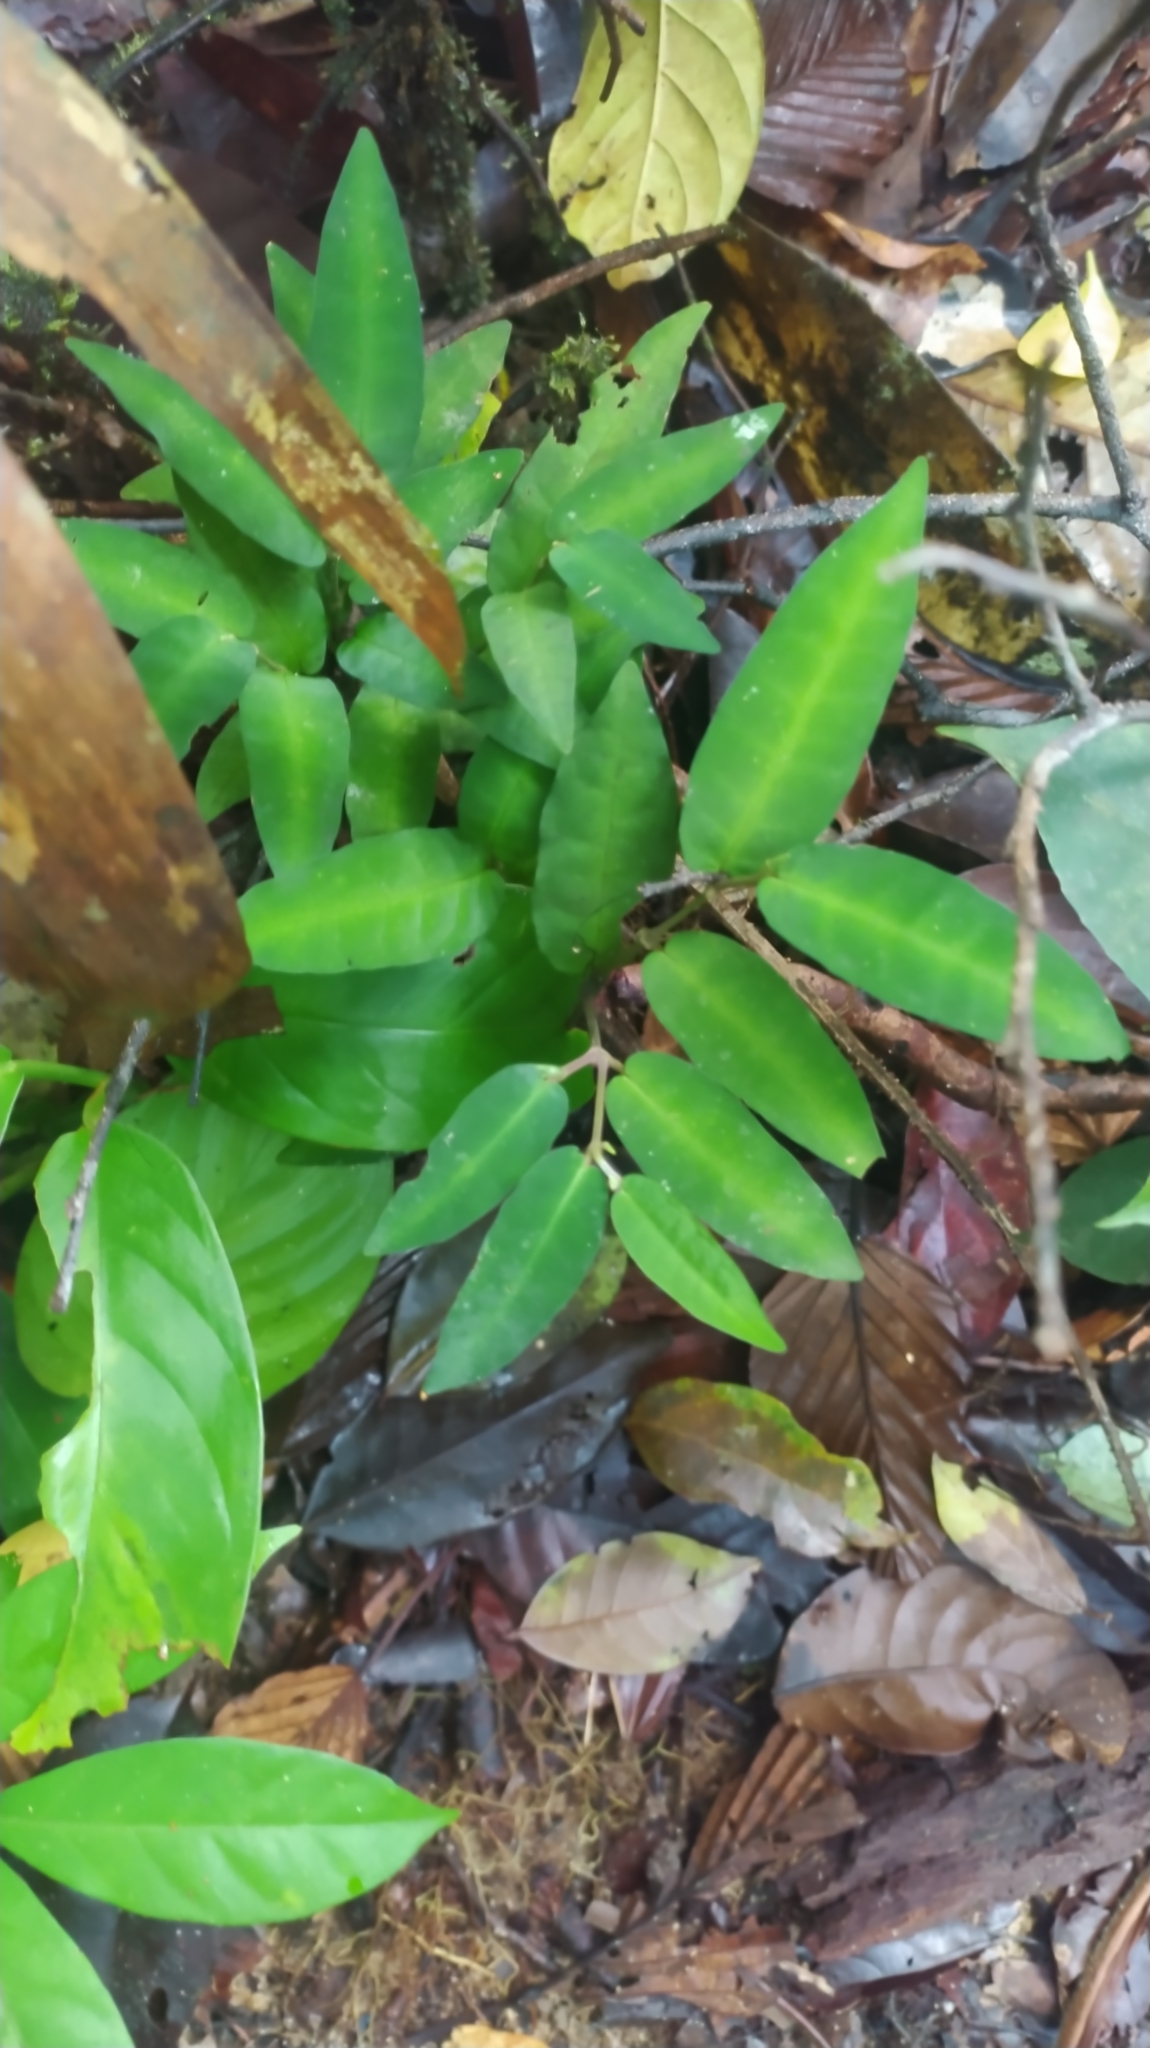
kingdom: Plantae
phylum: Tracheophyta
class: Magnoliopsida
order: Piperales
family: Piperaceae
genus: Piper
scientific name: Piper consanguineum
